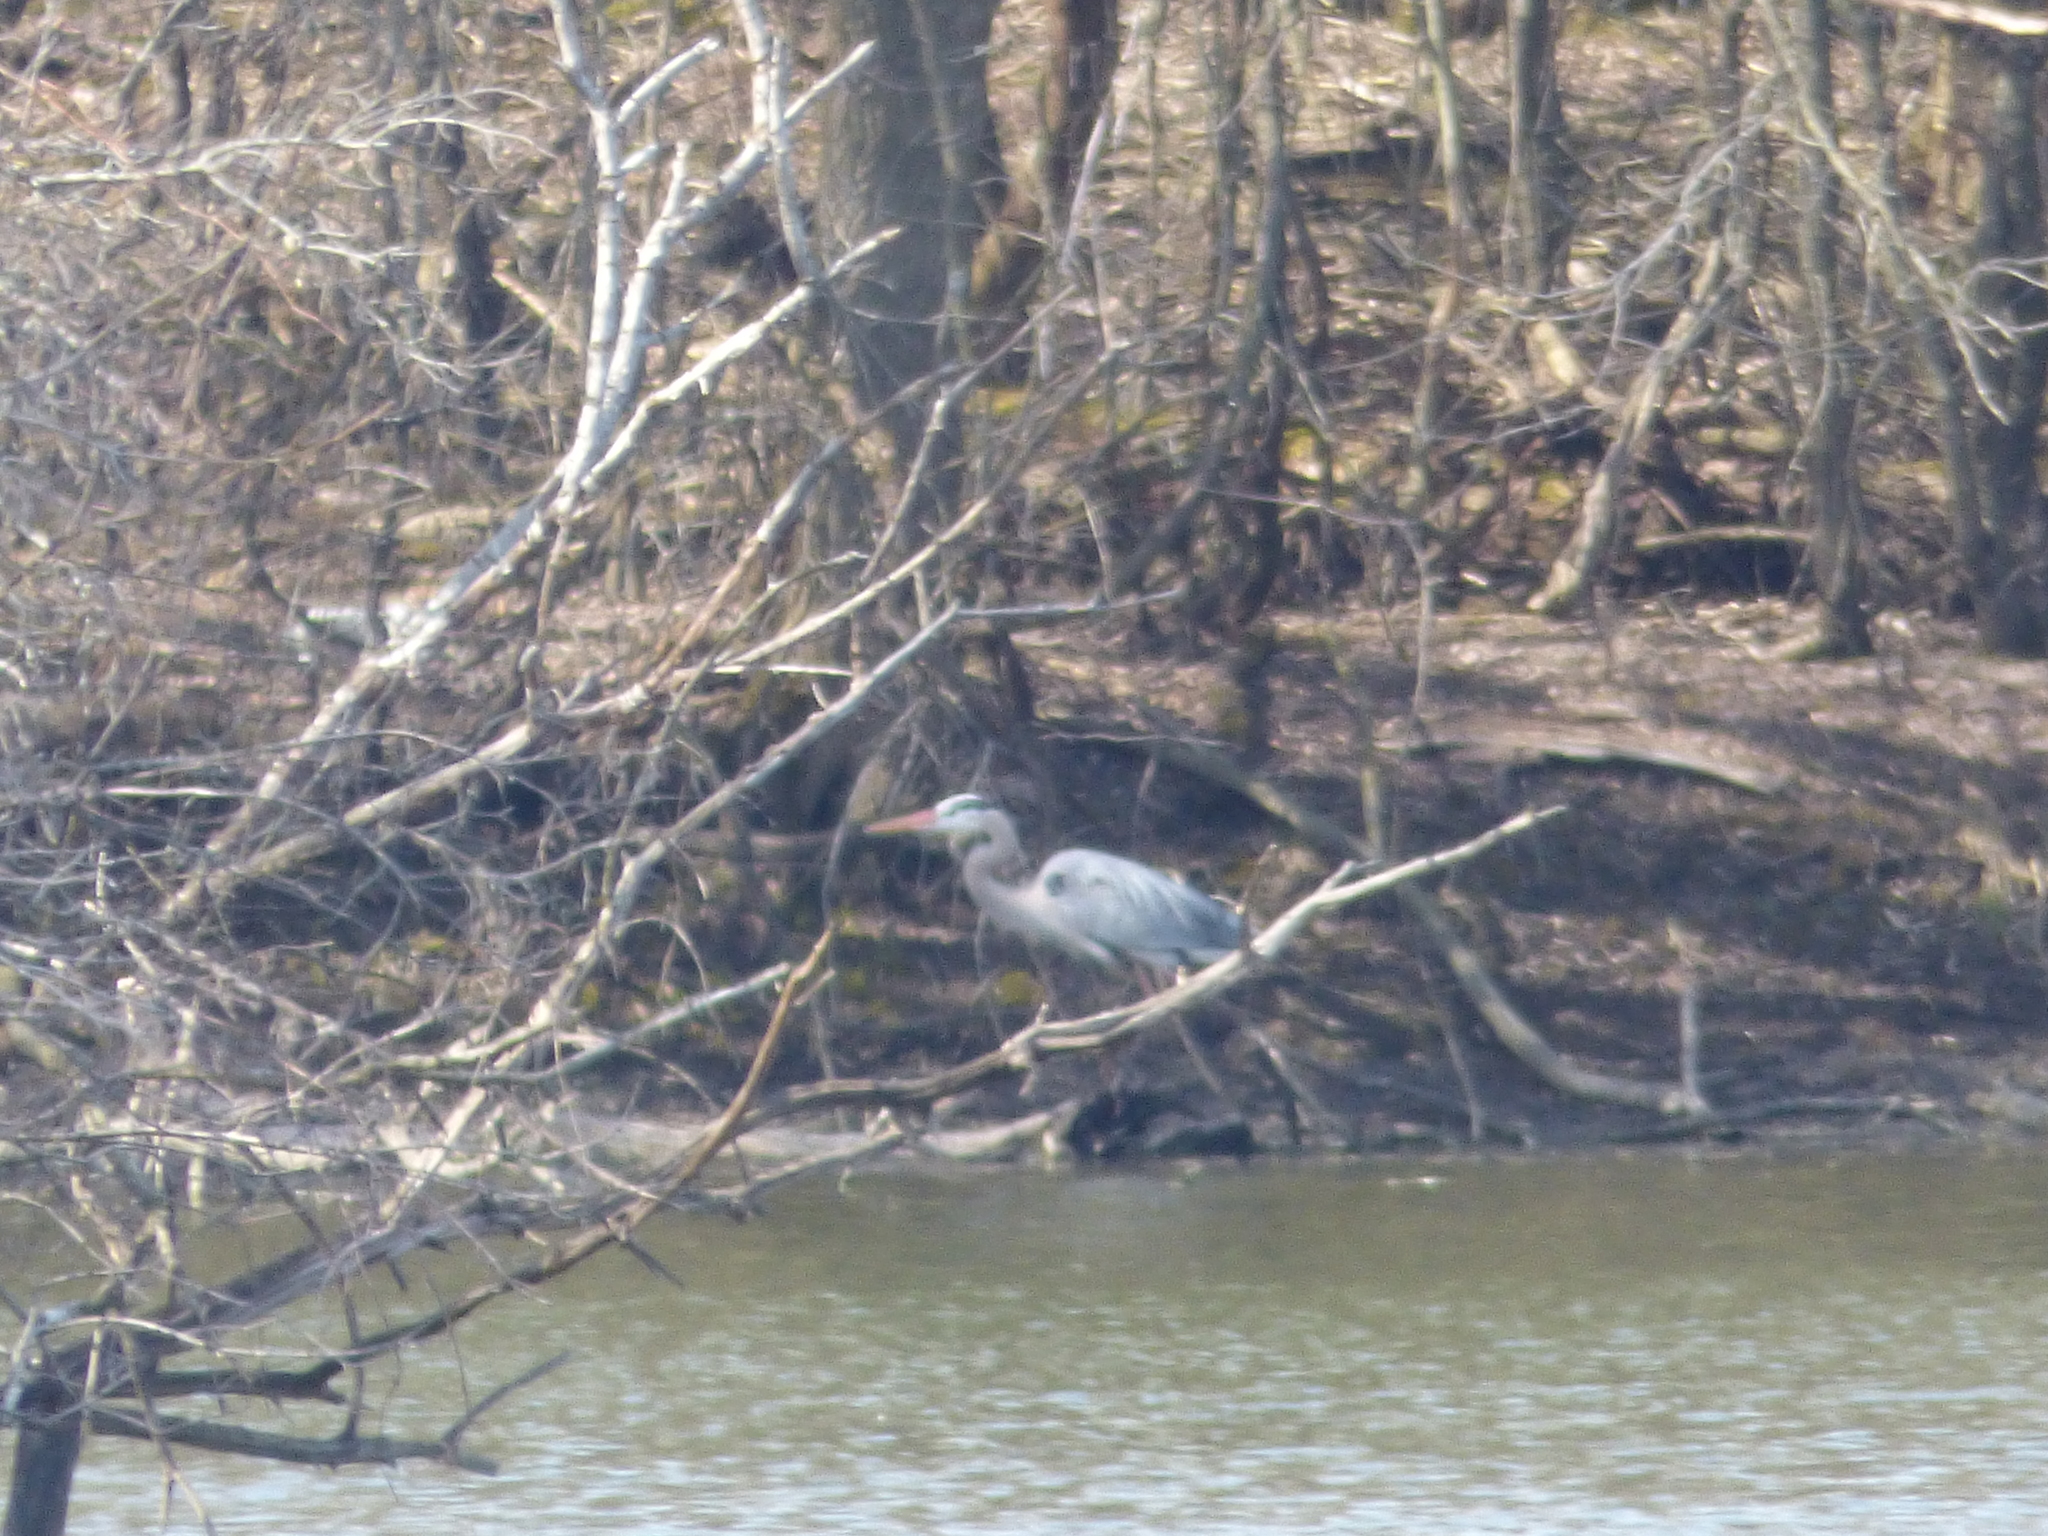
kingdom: Animalia
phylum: Chordata
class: Aves
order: Pelecaniformes
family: Ardeidae
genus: Ardea
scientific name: Ardea herodias
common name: Great blue heron
